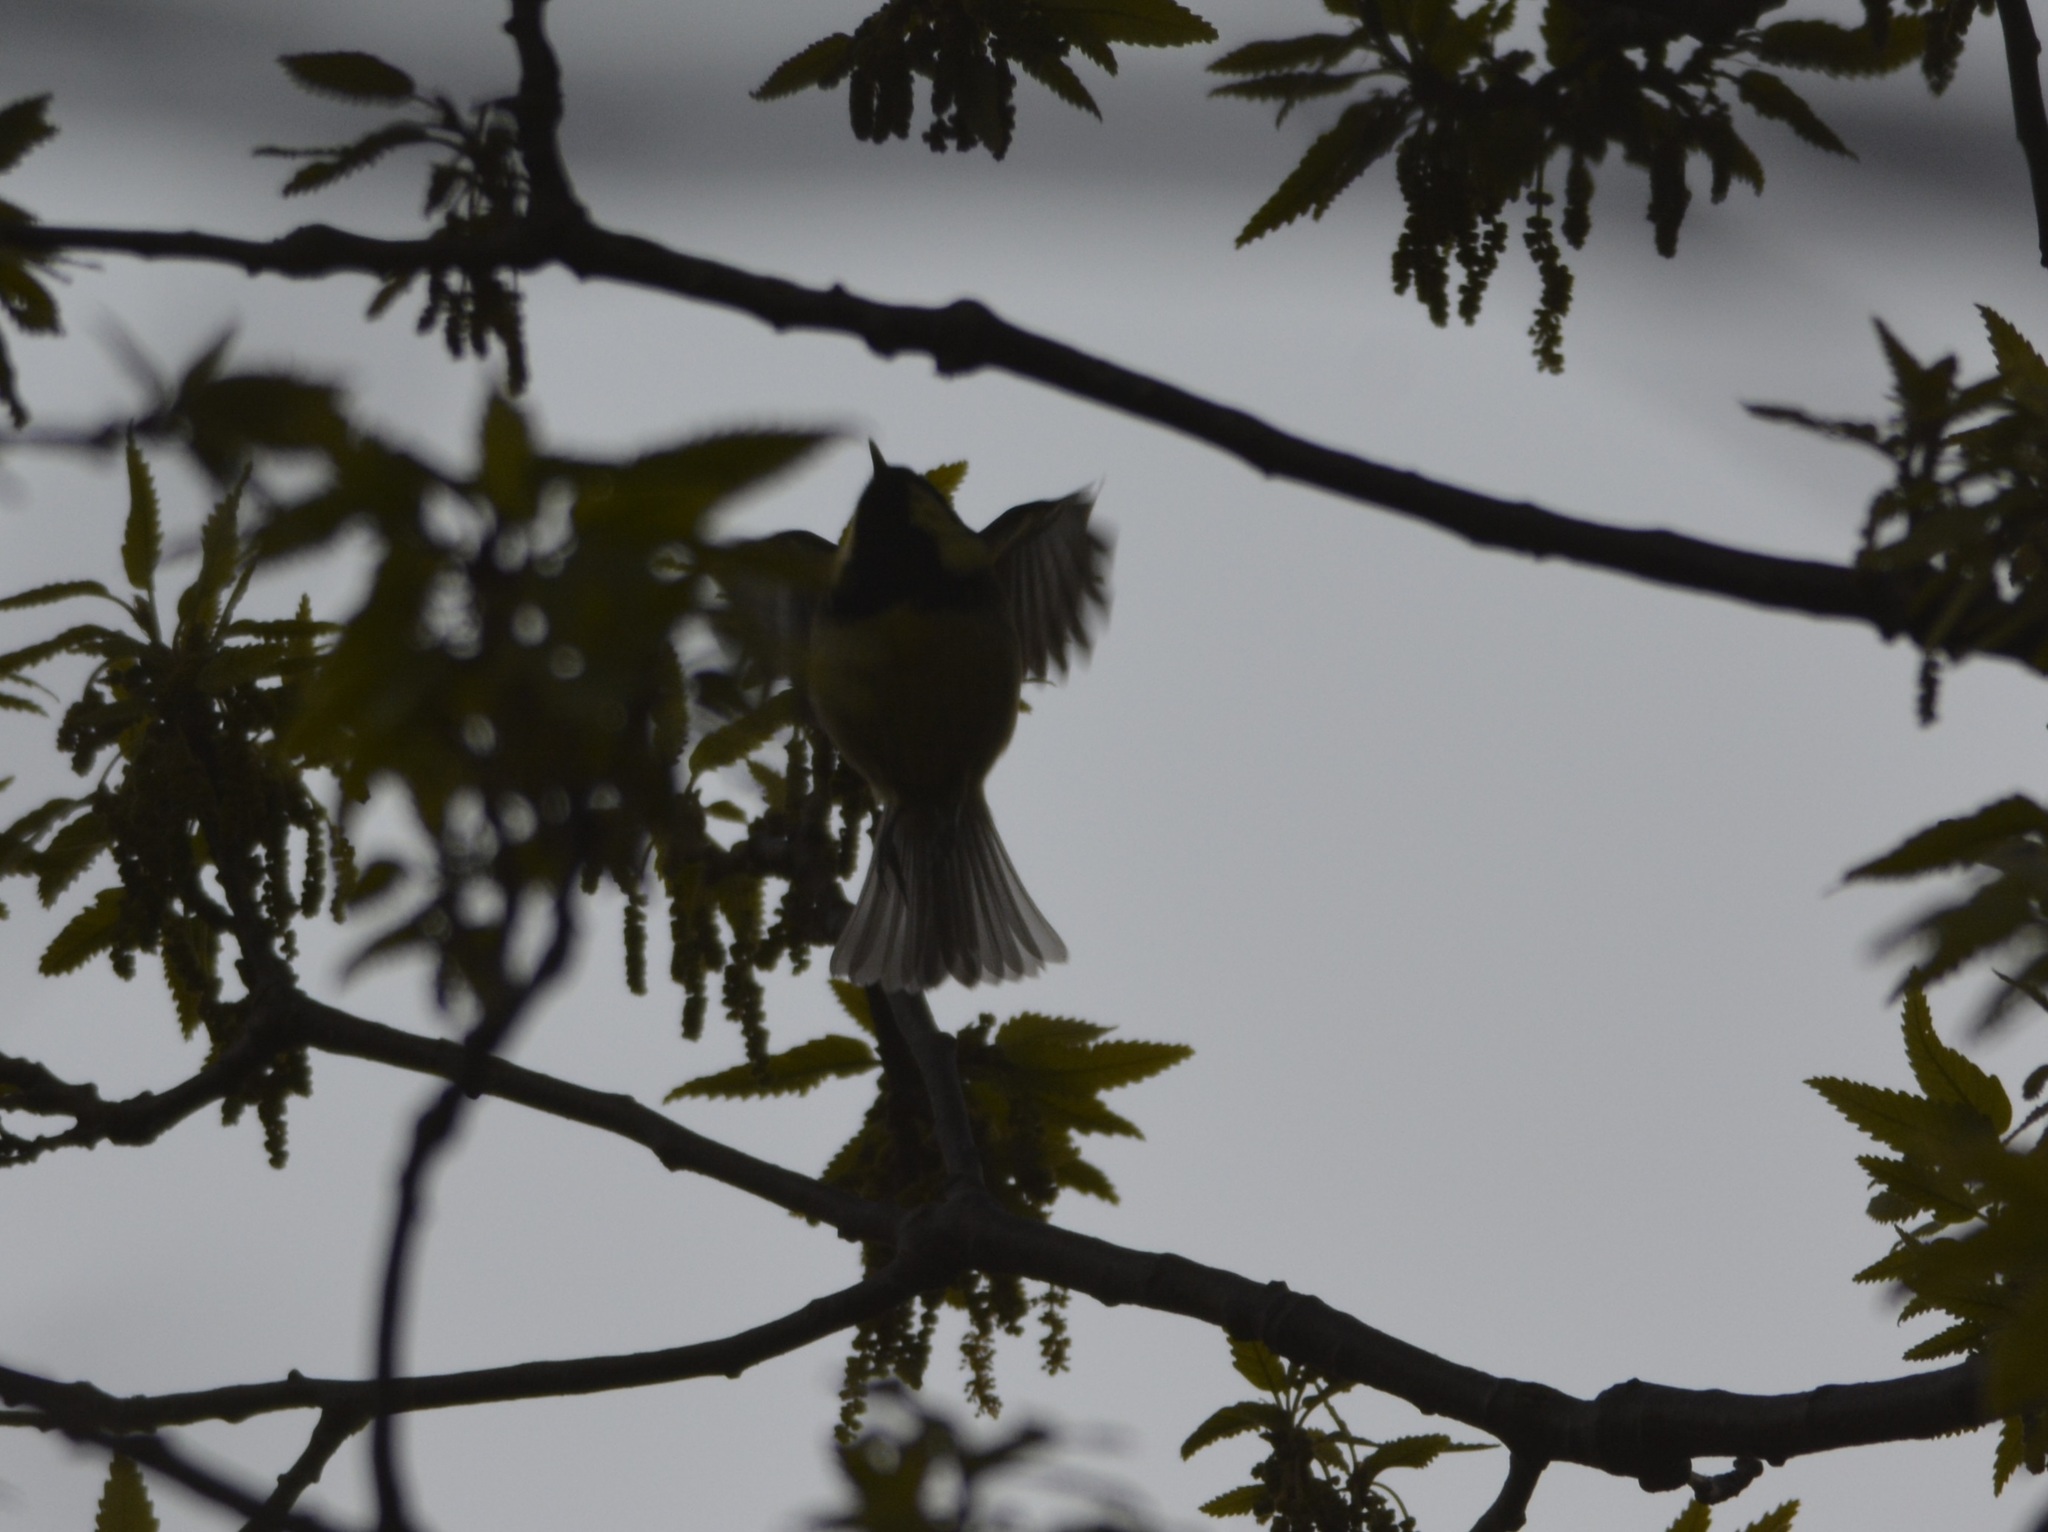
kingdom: Animalia
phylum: Chordata
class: Aves
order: Passeriformes
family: Paridae
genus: Periparus
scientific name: Periparus ater
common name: Coal tit
